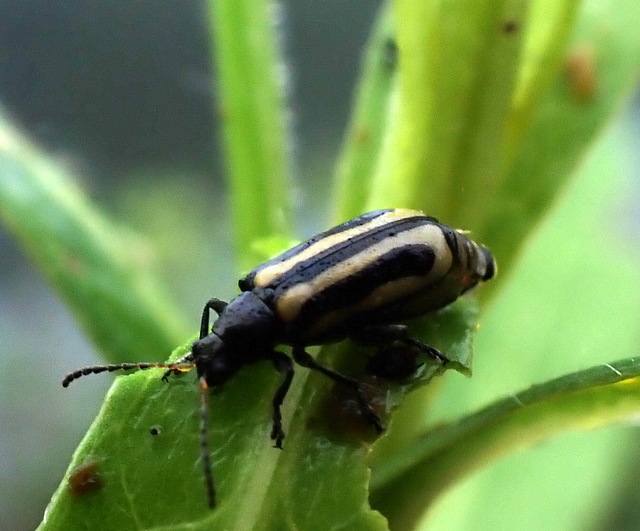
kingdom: Animalia
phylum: Arthropoda
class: Insecta
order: Coleoptera
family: Chrysomelidae
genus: Agasicles
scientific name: Agasicles hygrophila
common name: Alligatorweed flea beetle
